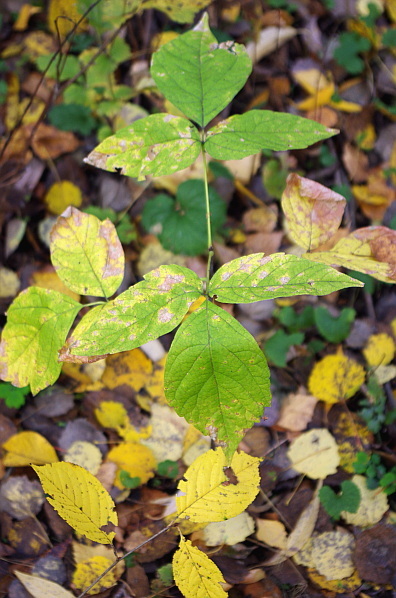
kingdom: Plantae
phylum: Tracheophyta
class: Magnoliopsida
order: Sapindales
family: Sapindaceae
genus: Acer
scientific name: Acer negundo
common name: Ashleaf maple
